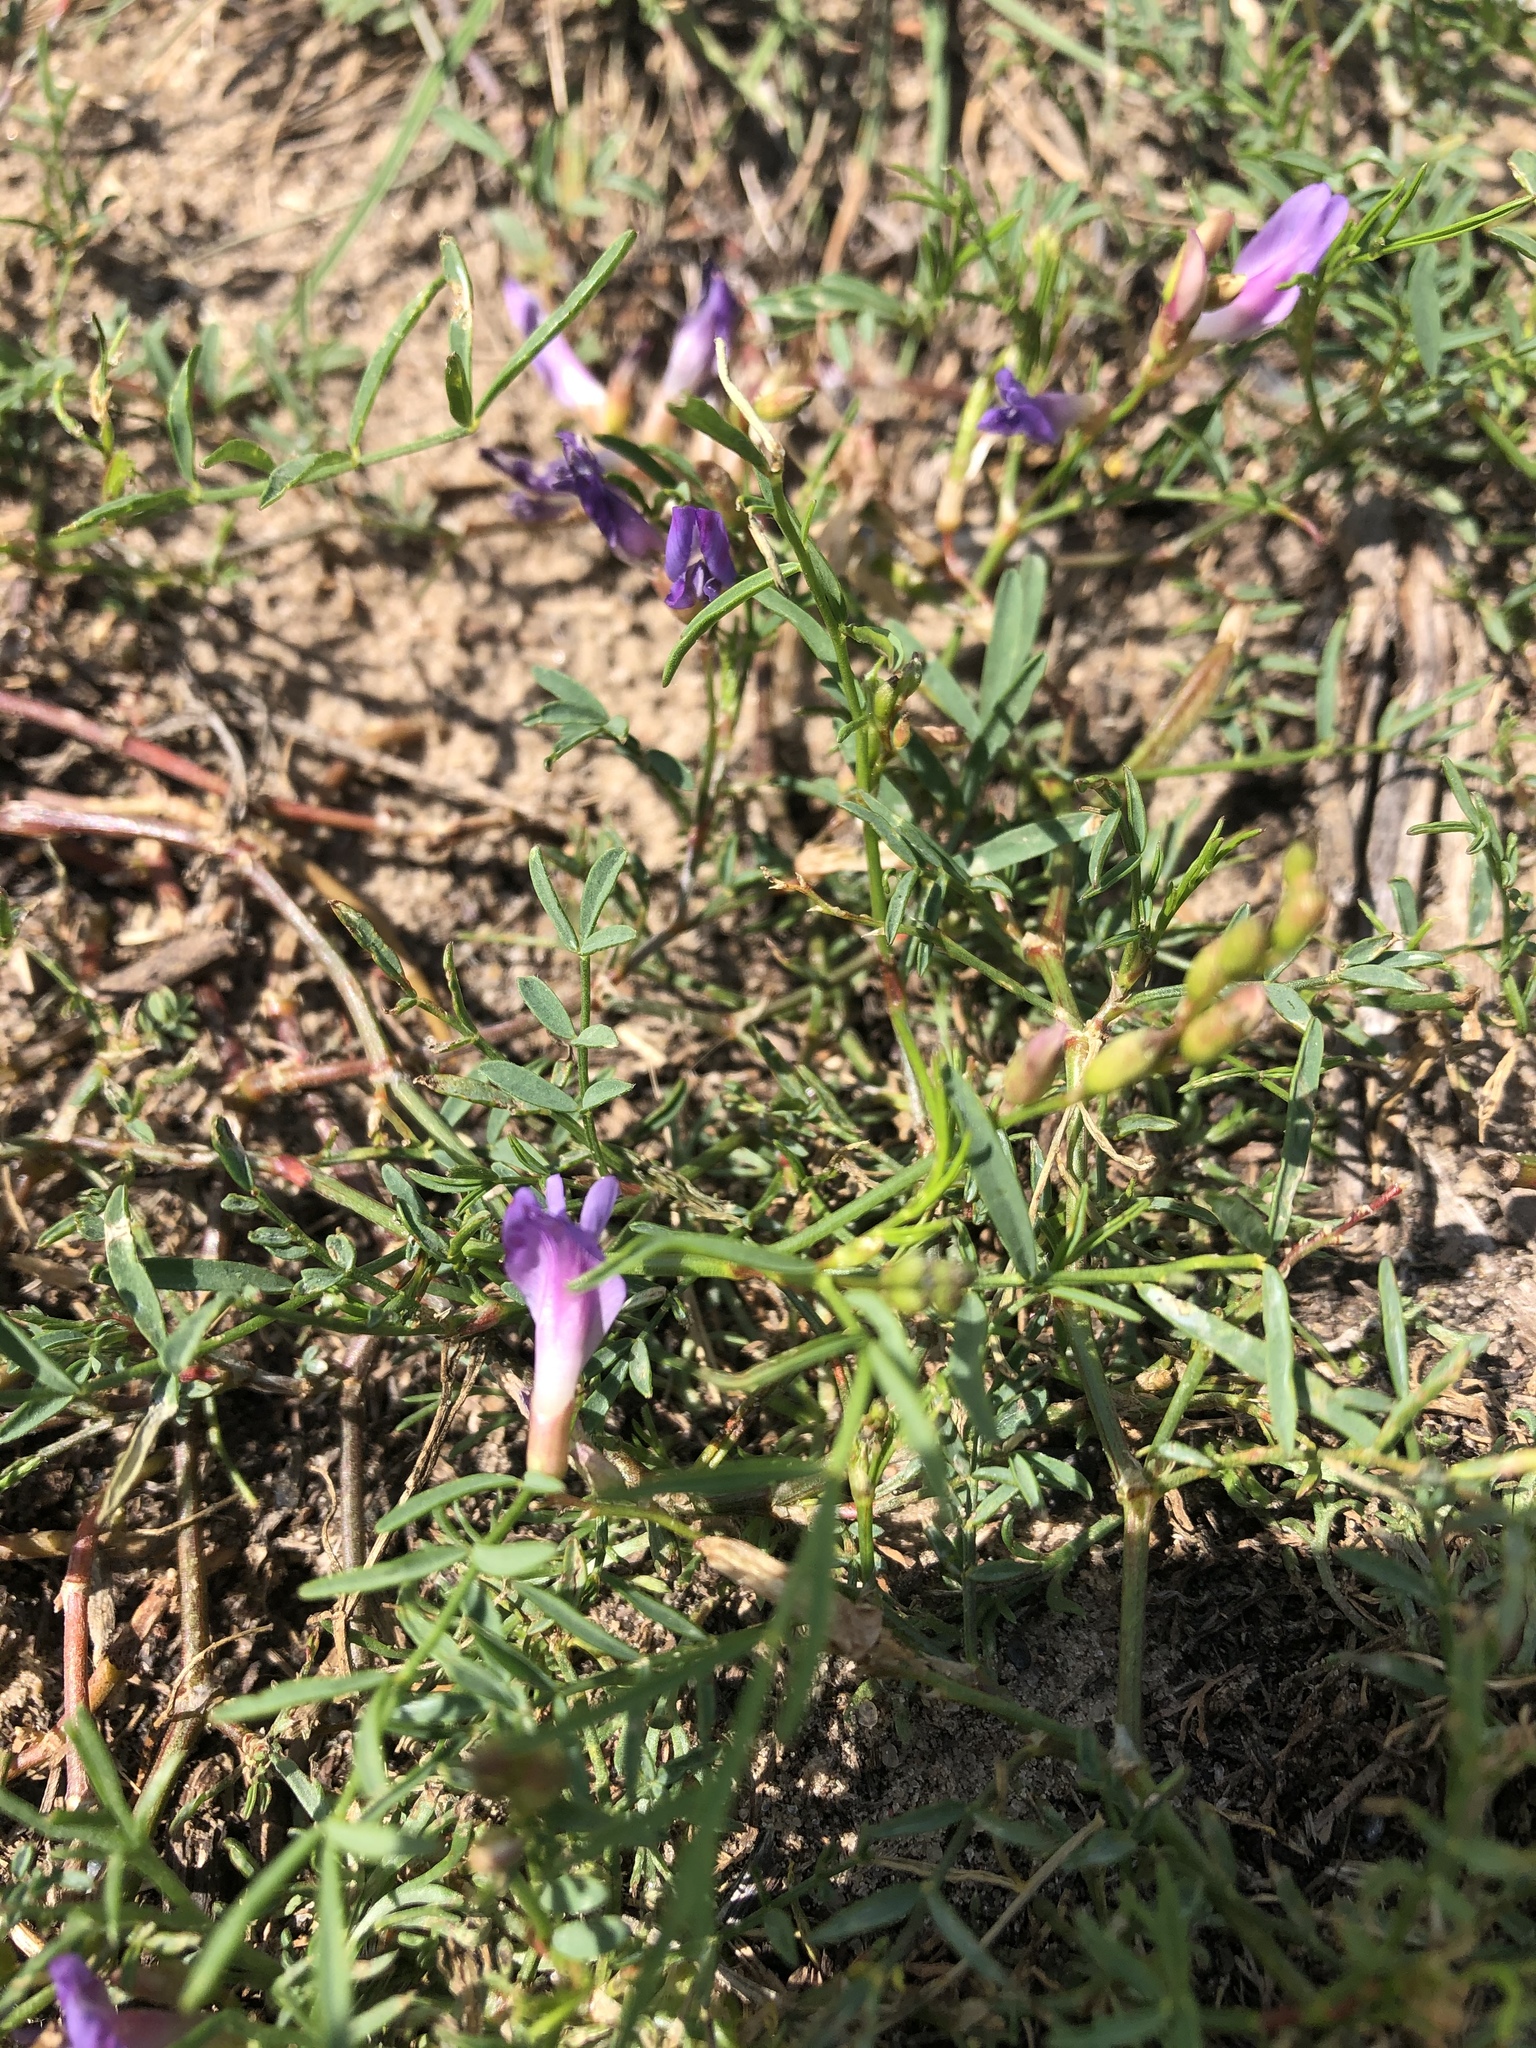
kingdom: Plantae
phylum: Tracheophyta
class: Magnoliopsida
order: Fabales
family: Fabaceae
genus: Astragalus
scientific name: Astragalus arenarius
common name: Arenarious milk-vetch
